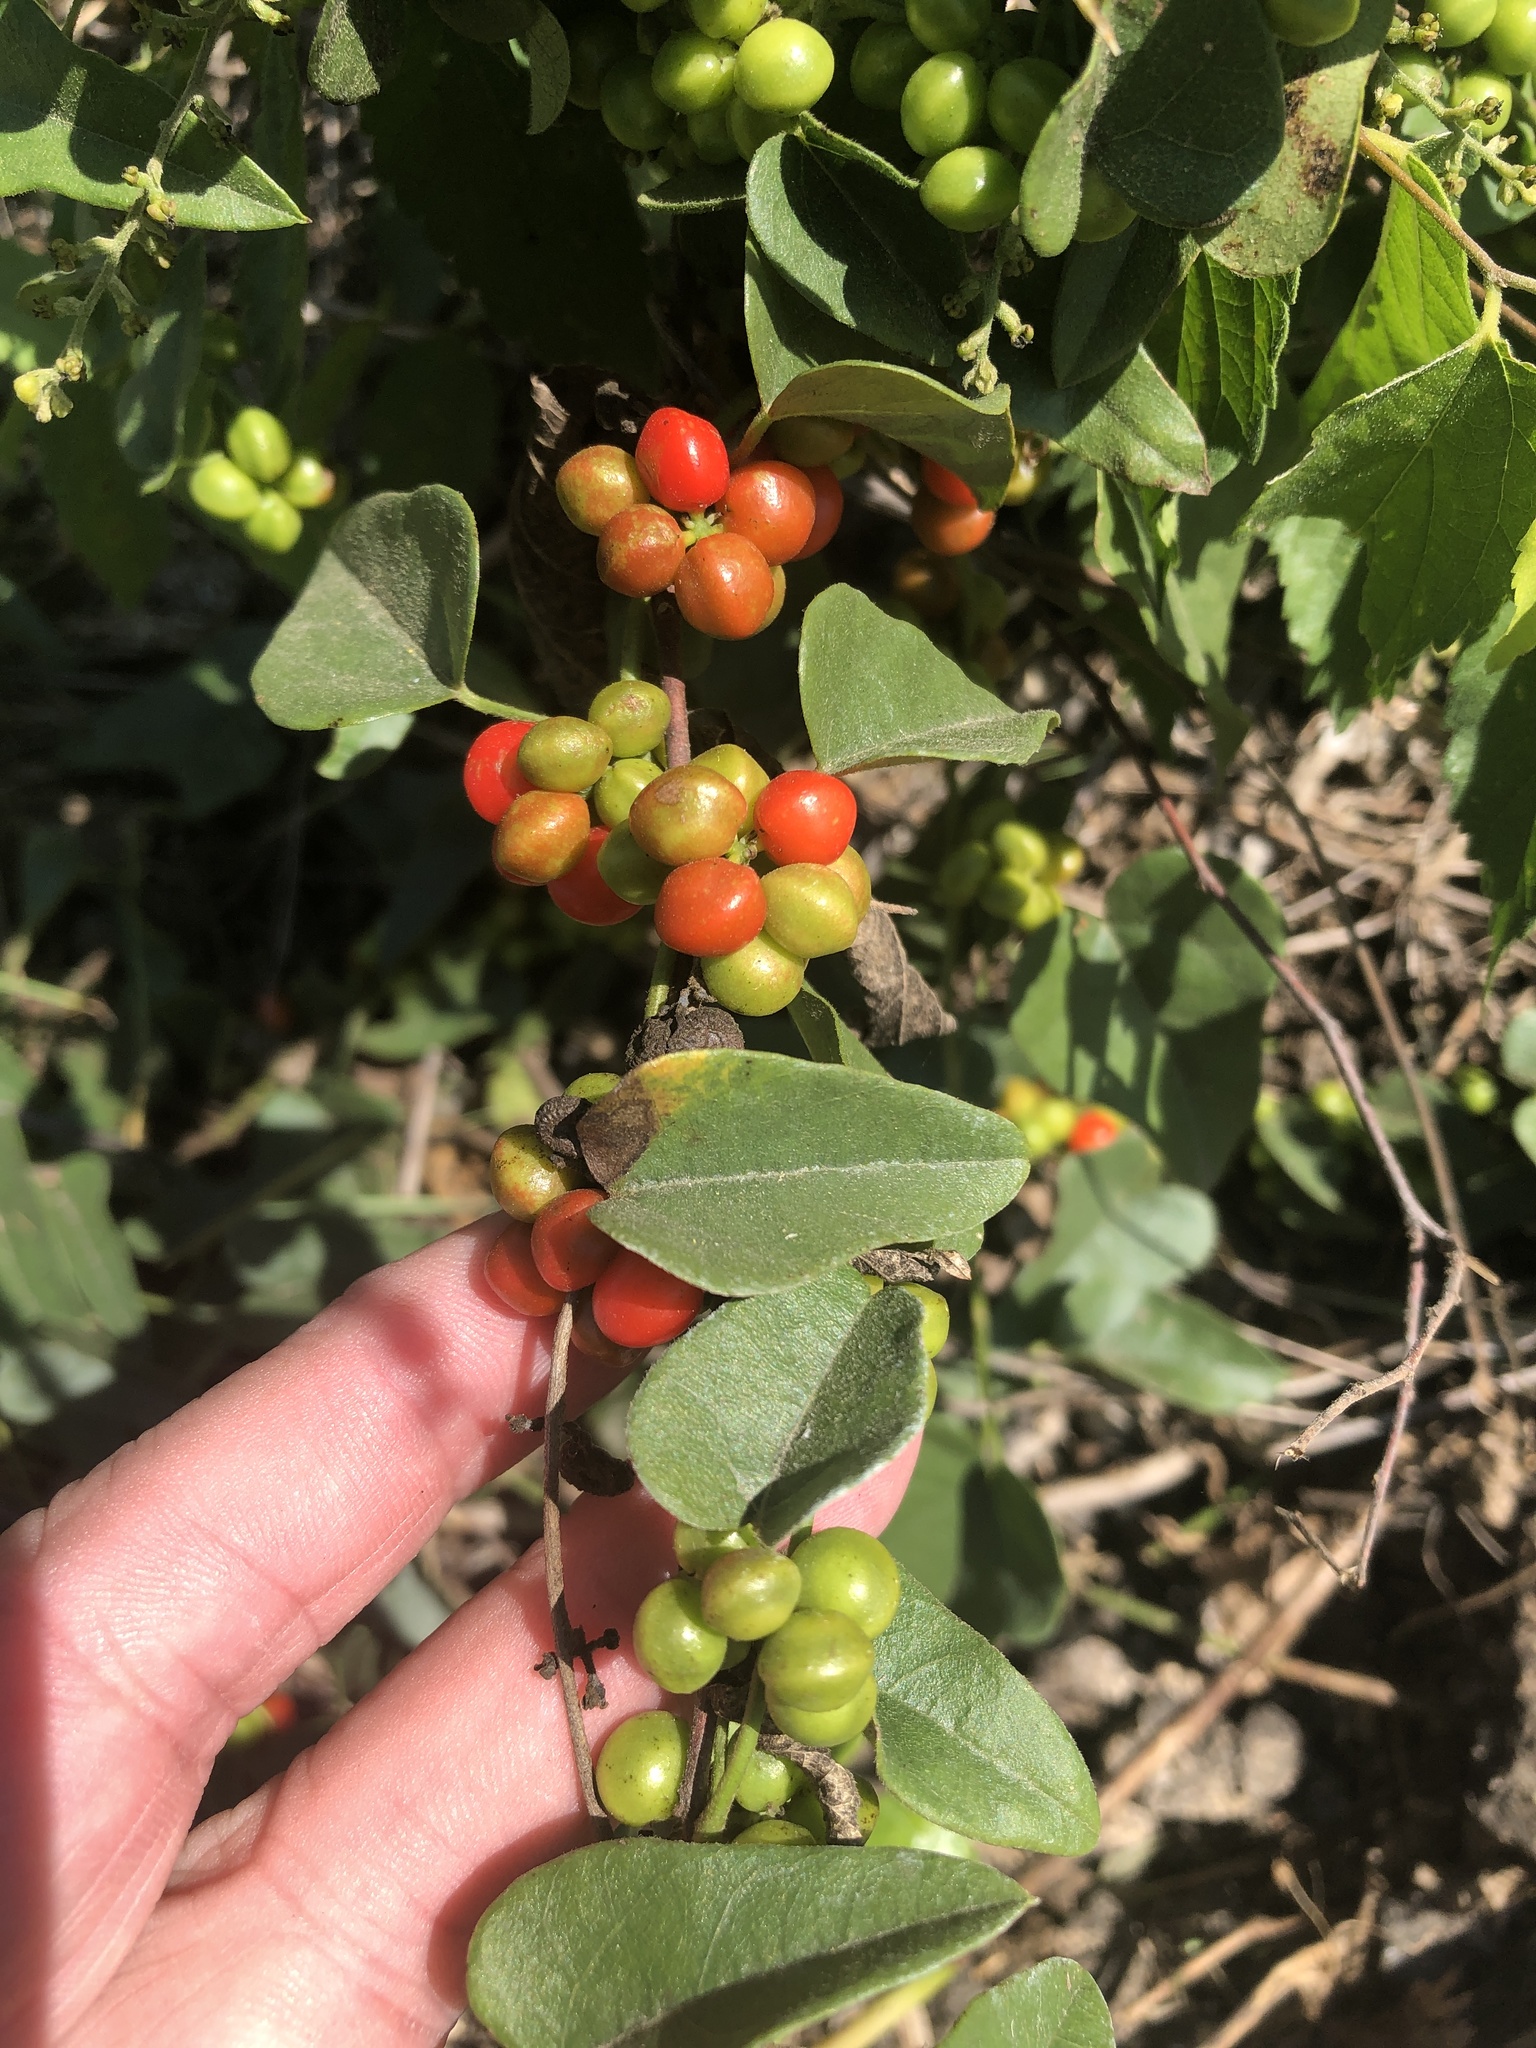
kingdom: Plantae
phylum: Tracheophyta
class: Magnoliopsida
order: Ranunculales
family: Menispermaceae
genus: Cocculus
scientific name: Cocculus carolinus
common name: Carolina moonseed
